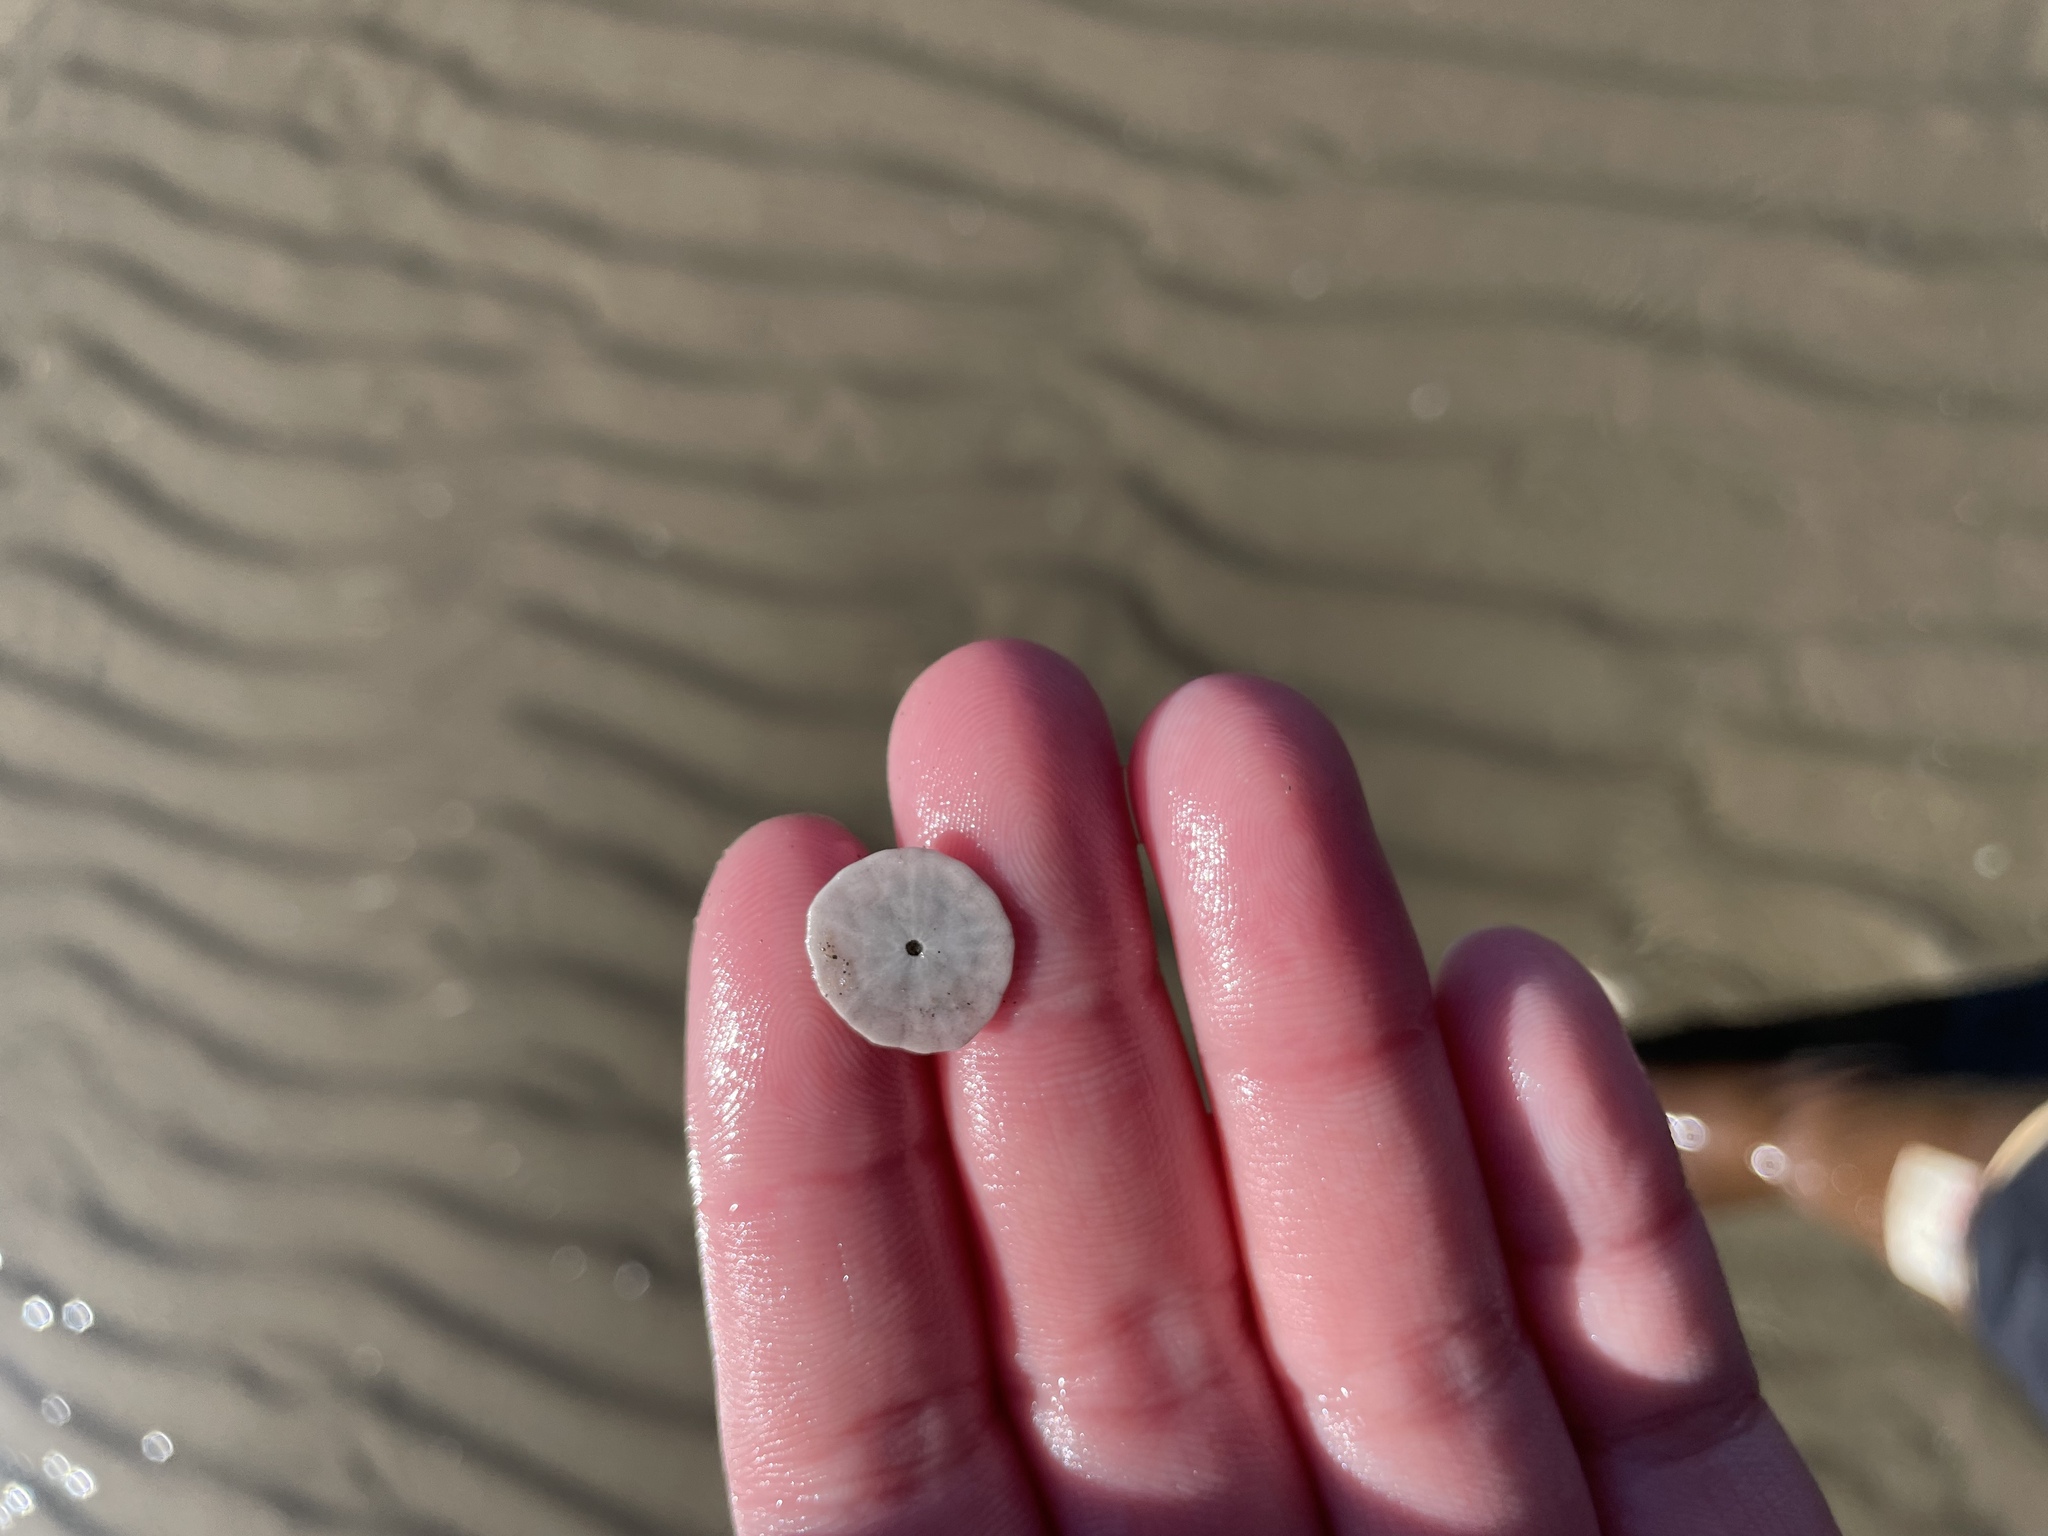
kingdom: Animalia
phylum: Echinodermata
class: Echinoidea
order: Echinolampadacea
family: Echinarachniidae
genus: Echinarachnius
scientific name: Echinarachnius parma
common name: Common sand dollar
